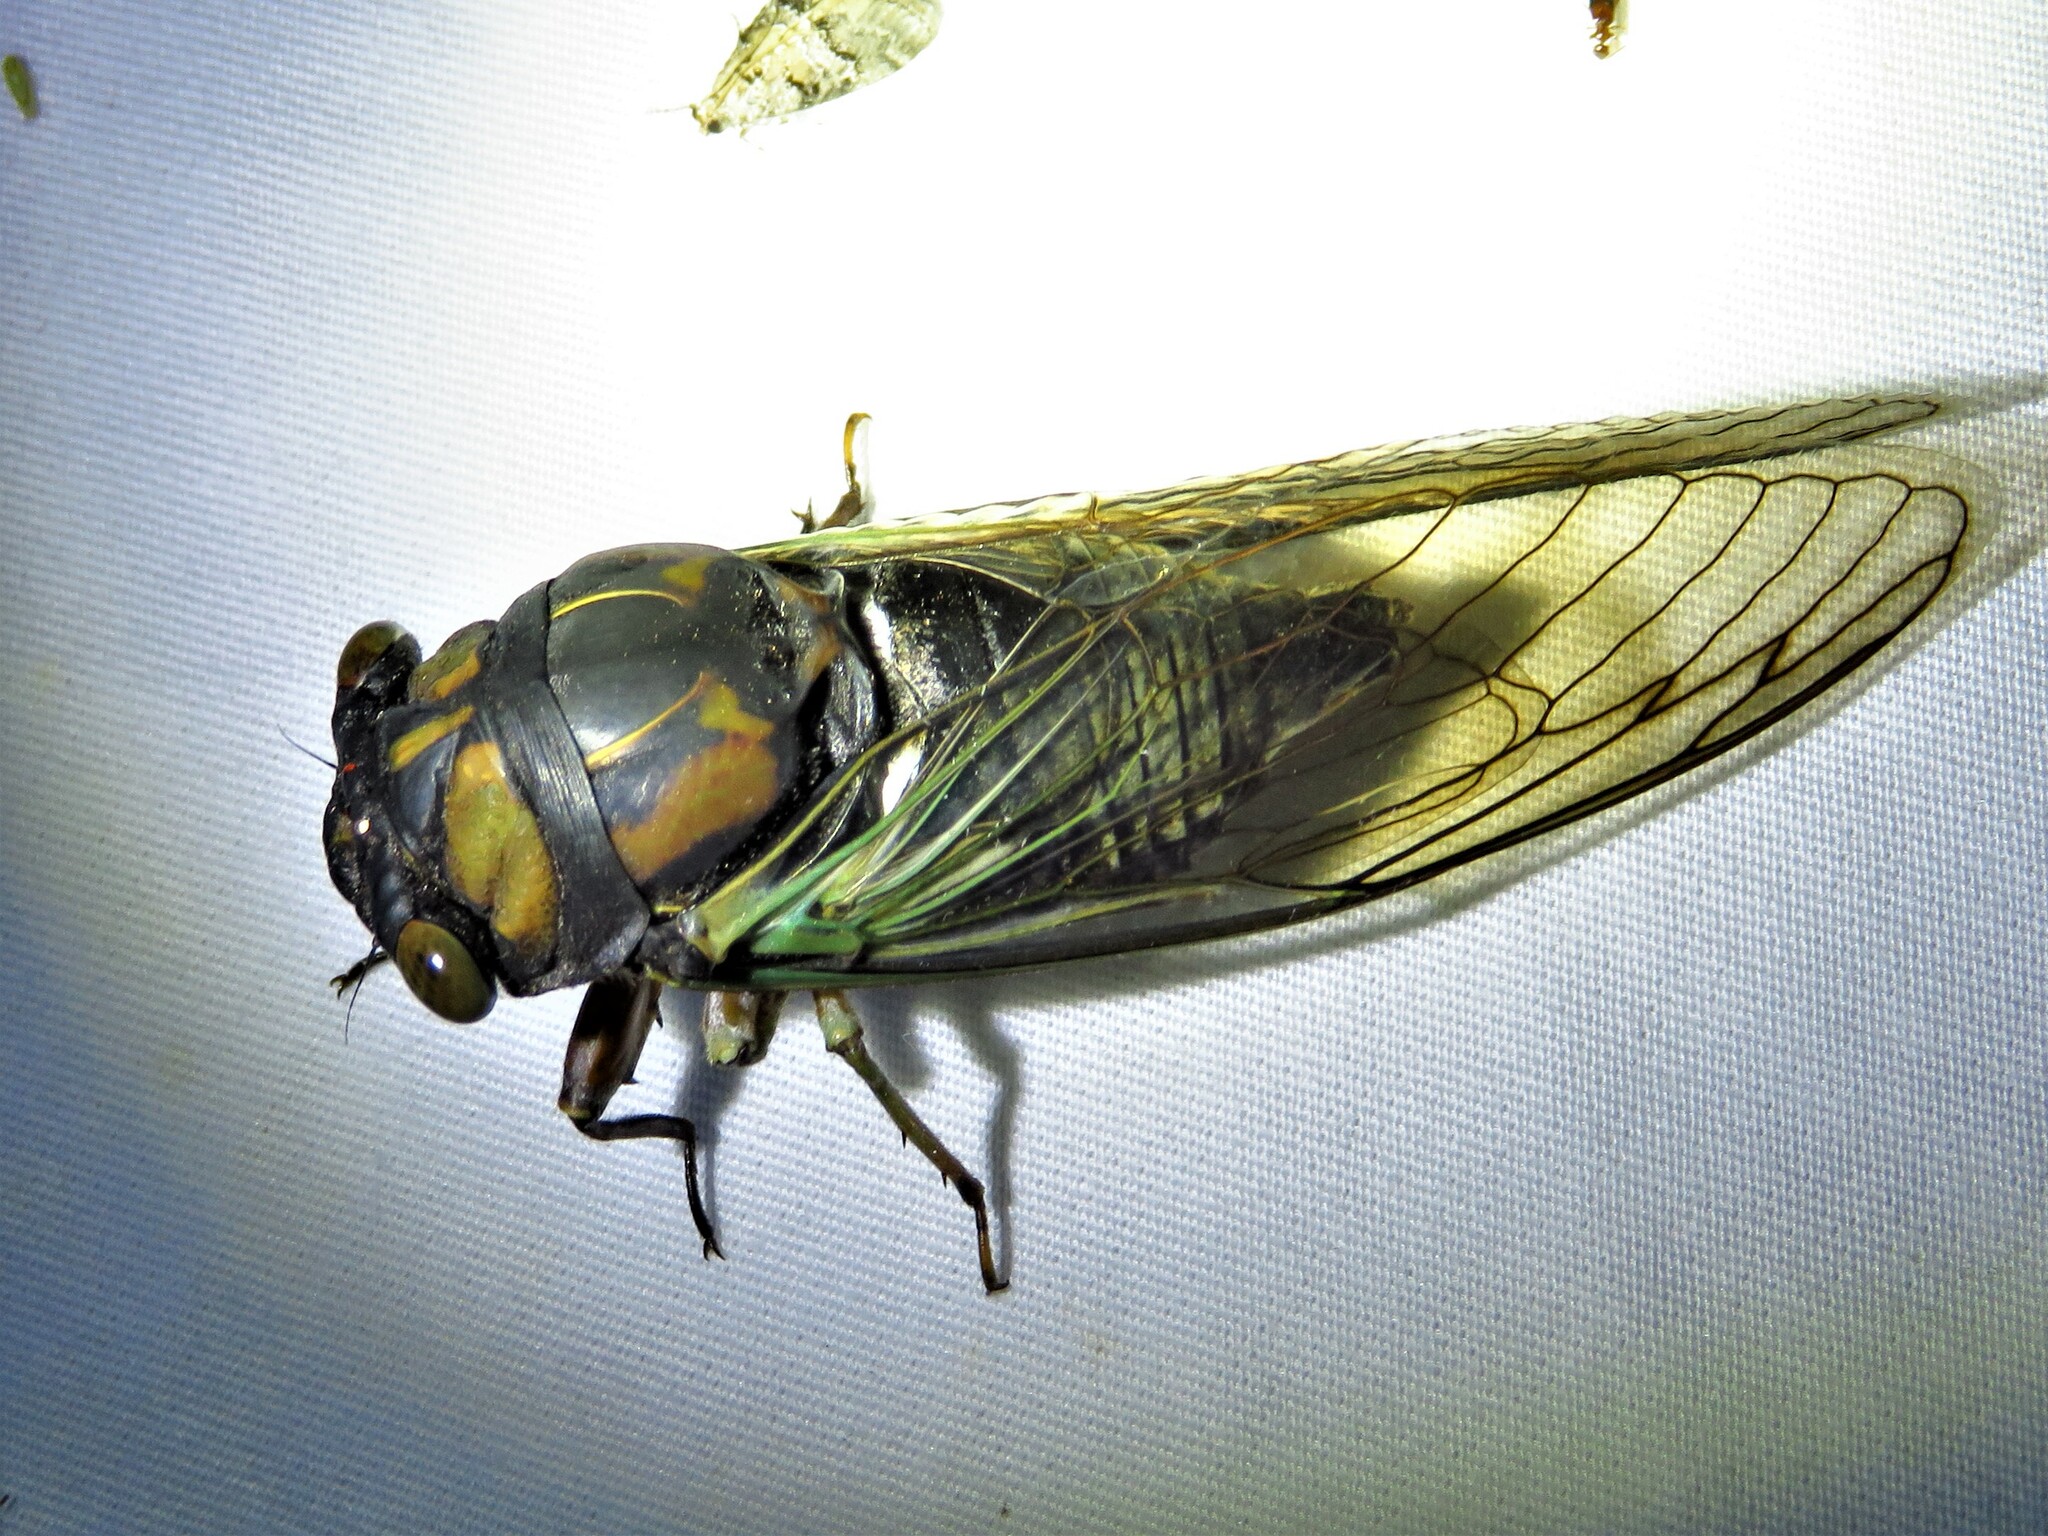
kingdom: Animalia
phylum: Arthropoda
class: Insecta
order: Hemiptera
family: Cicadidae
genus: Neotibicen
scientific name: Neotibicen lyricen
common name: Lyric cicada
